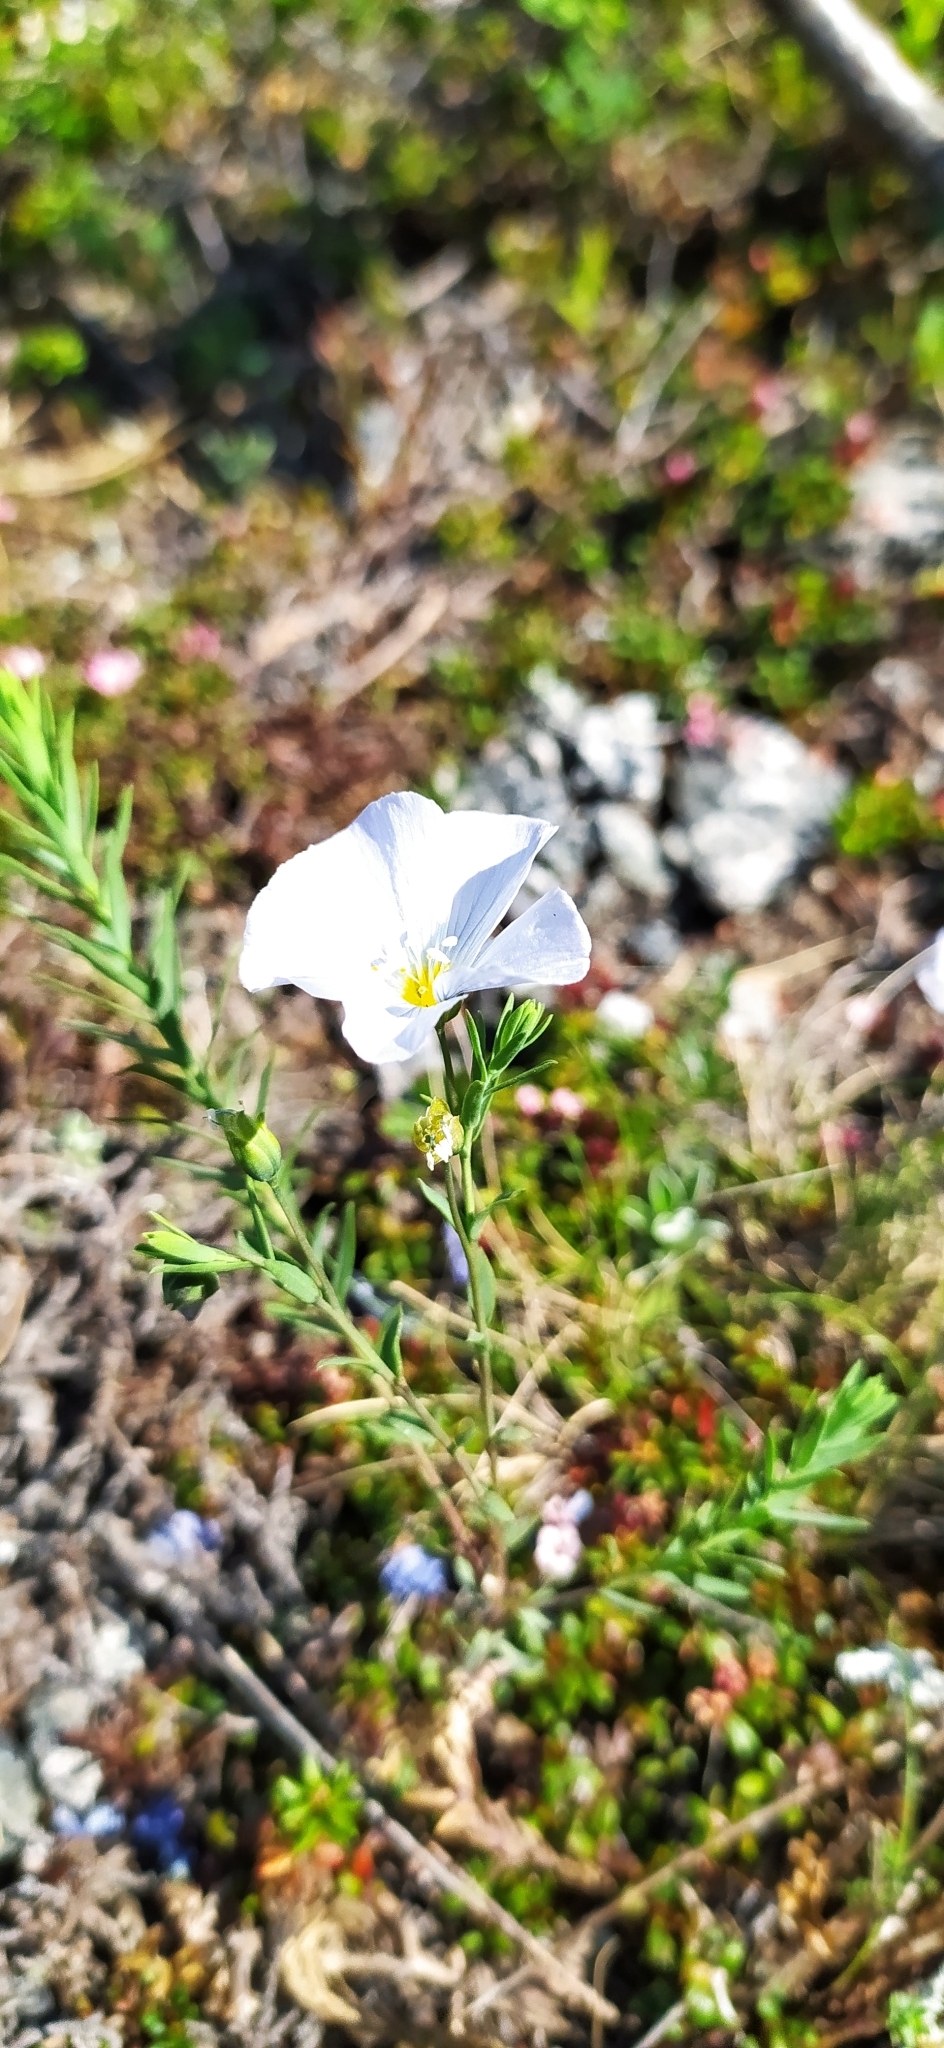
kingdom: Plantae
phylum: Tracheophyta
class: Magnoliopsida
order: Malpighiales
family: Linaceae
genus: Linum
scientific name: Linum komarovii
